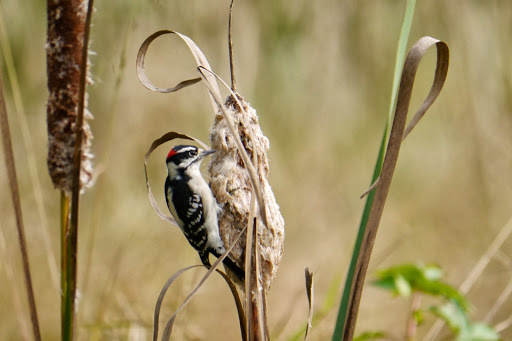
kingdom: Animalia
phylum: Chordata
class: Aves
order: Piciformes
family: Picidae
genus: Dryobates
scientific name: Dryobates pubescens
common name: Downy woodpecker
